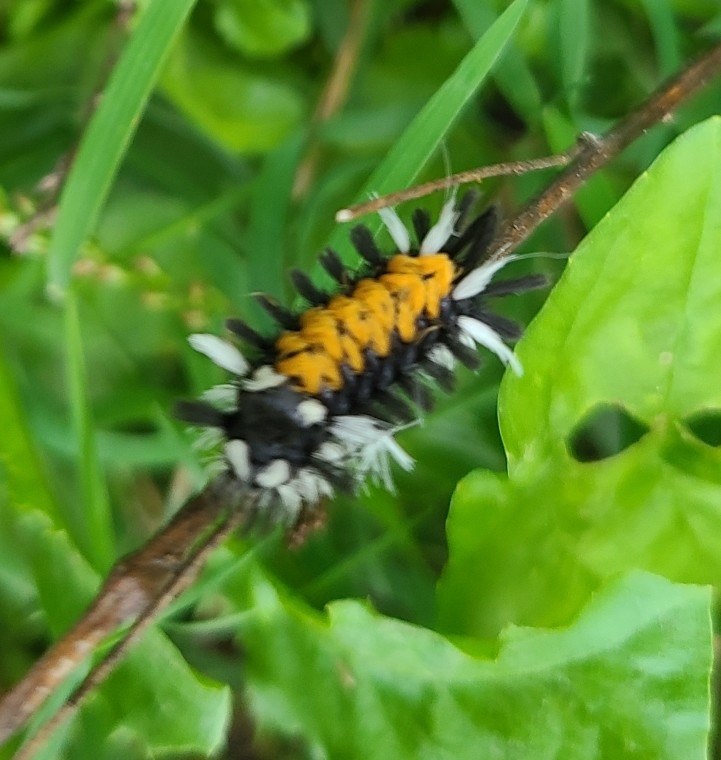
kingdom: Animalia
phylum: Arthropoda
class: Insecta
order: Lepidoptera
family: Erebidae
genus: Euchaetes
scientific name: Euchaetes egle
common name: Milkweed tussock moth
